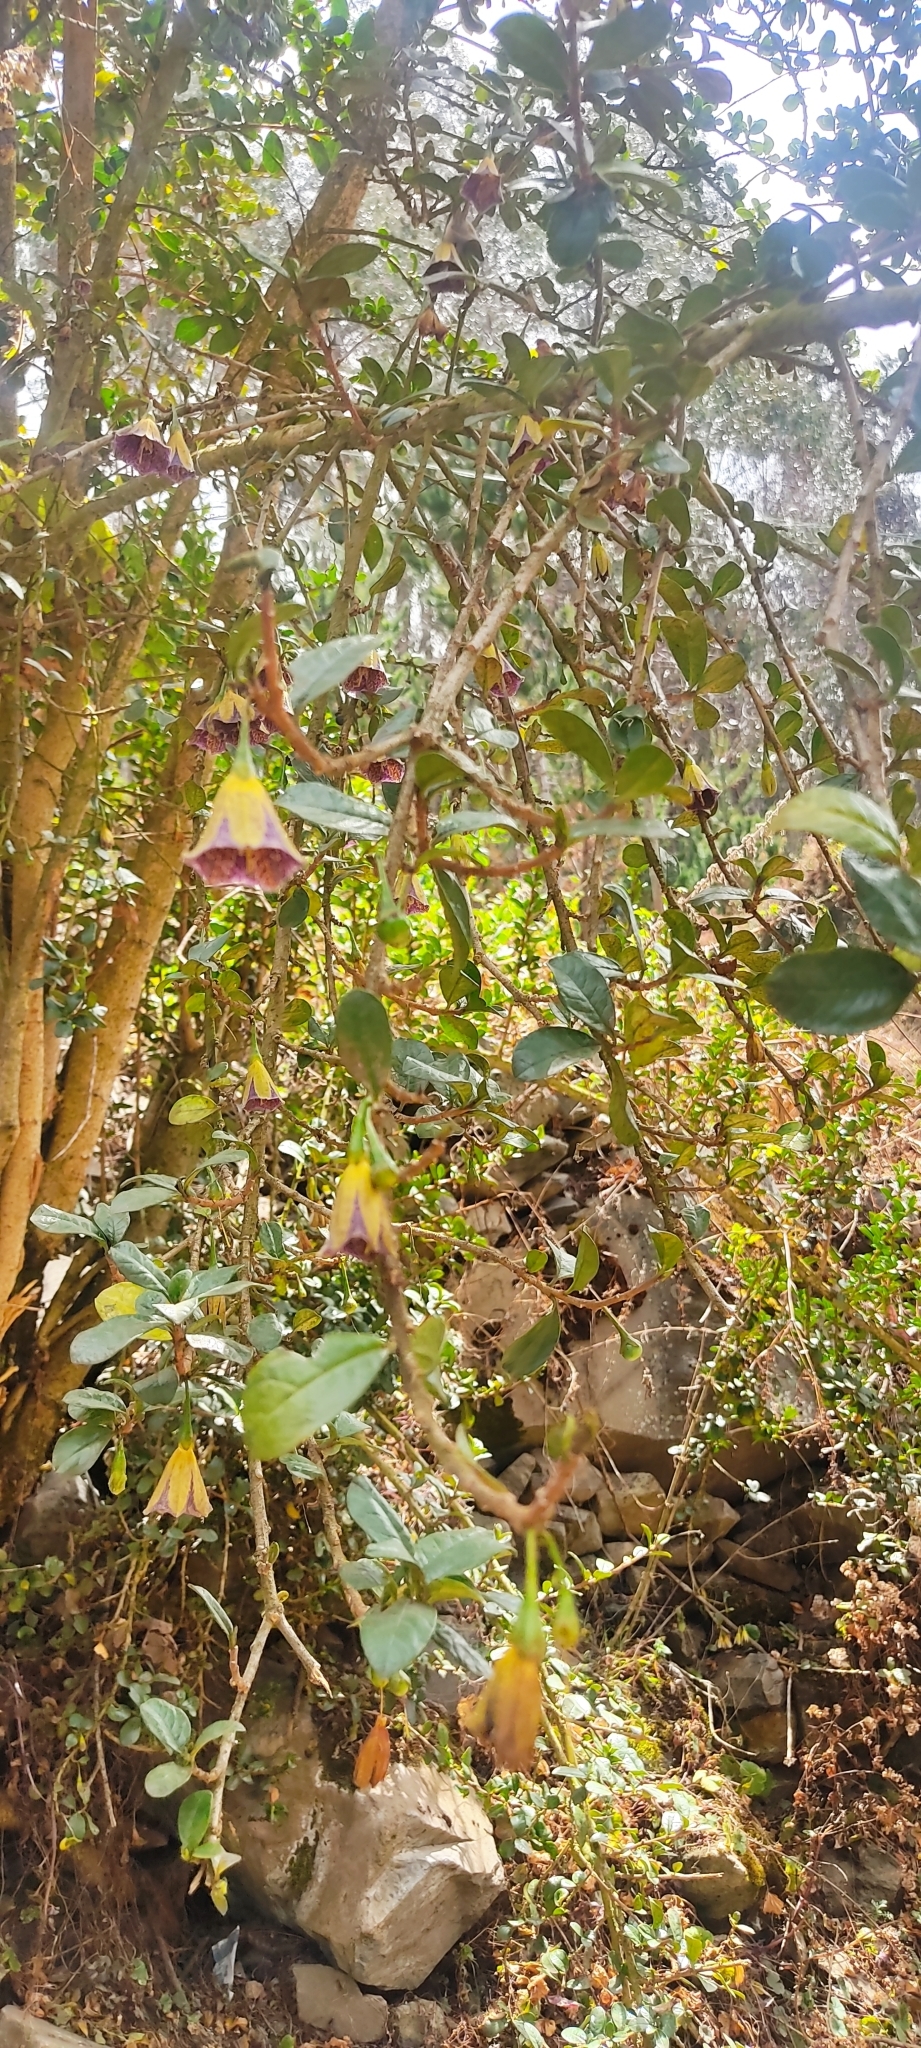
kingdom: Plantae
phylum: Tracheophyta
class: Magnoliopsida
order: Solanales
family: Solanaceae
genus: Saracha
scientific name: Saracha punctata
